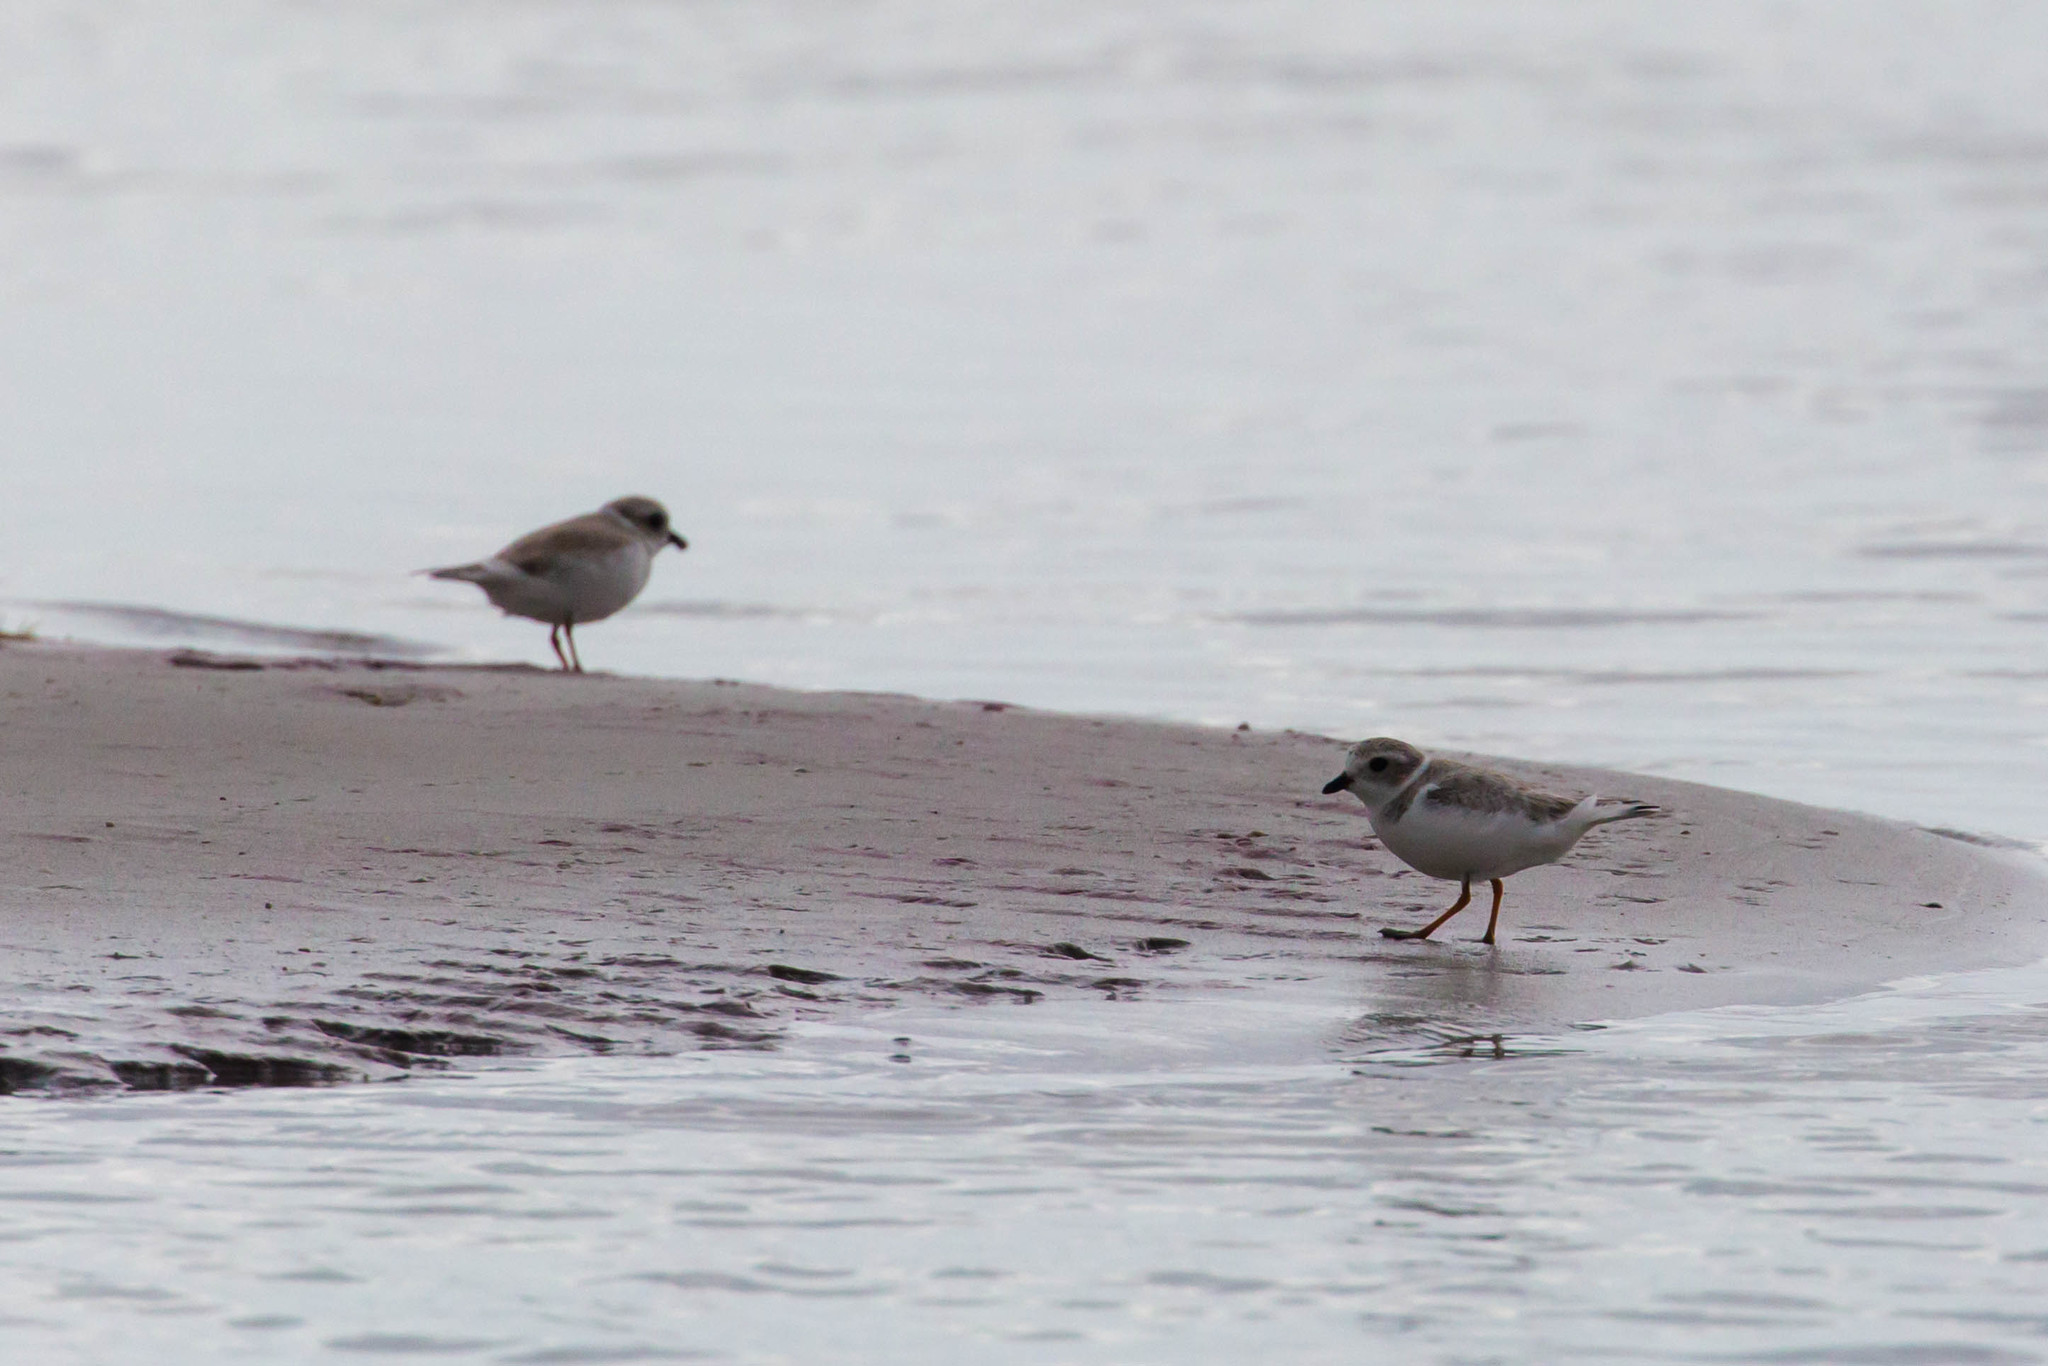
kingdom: Animalia
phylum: Chordata
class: Aves
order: Charadriiformes
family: Charadriidae
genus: Charadrius
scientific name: Charadrius melodus
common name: Piping plover
